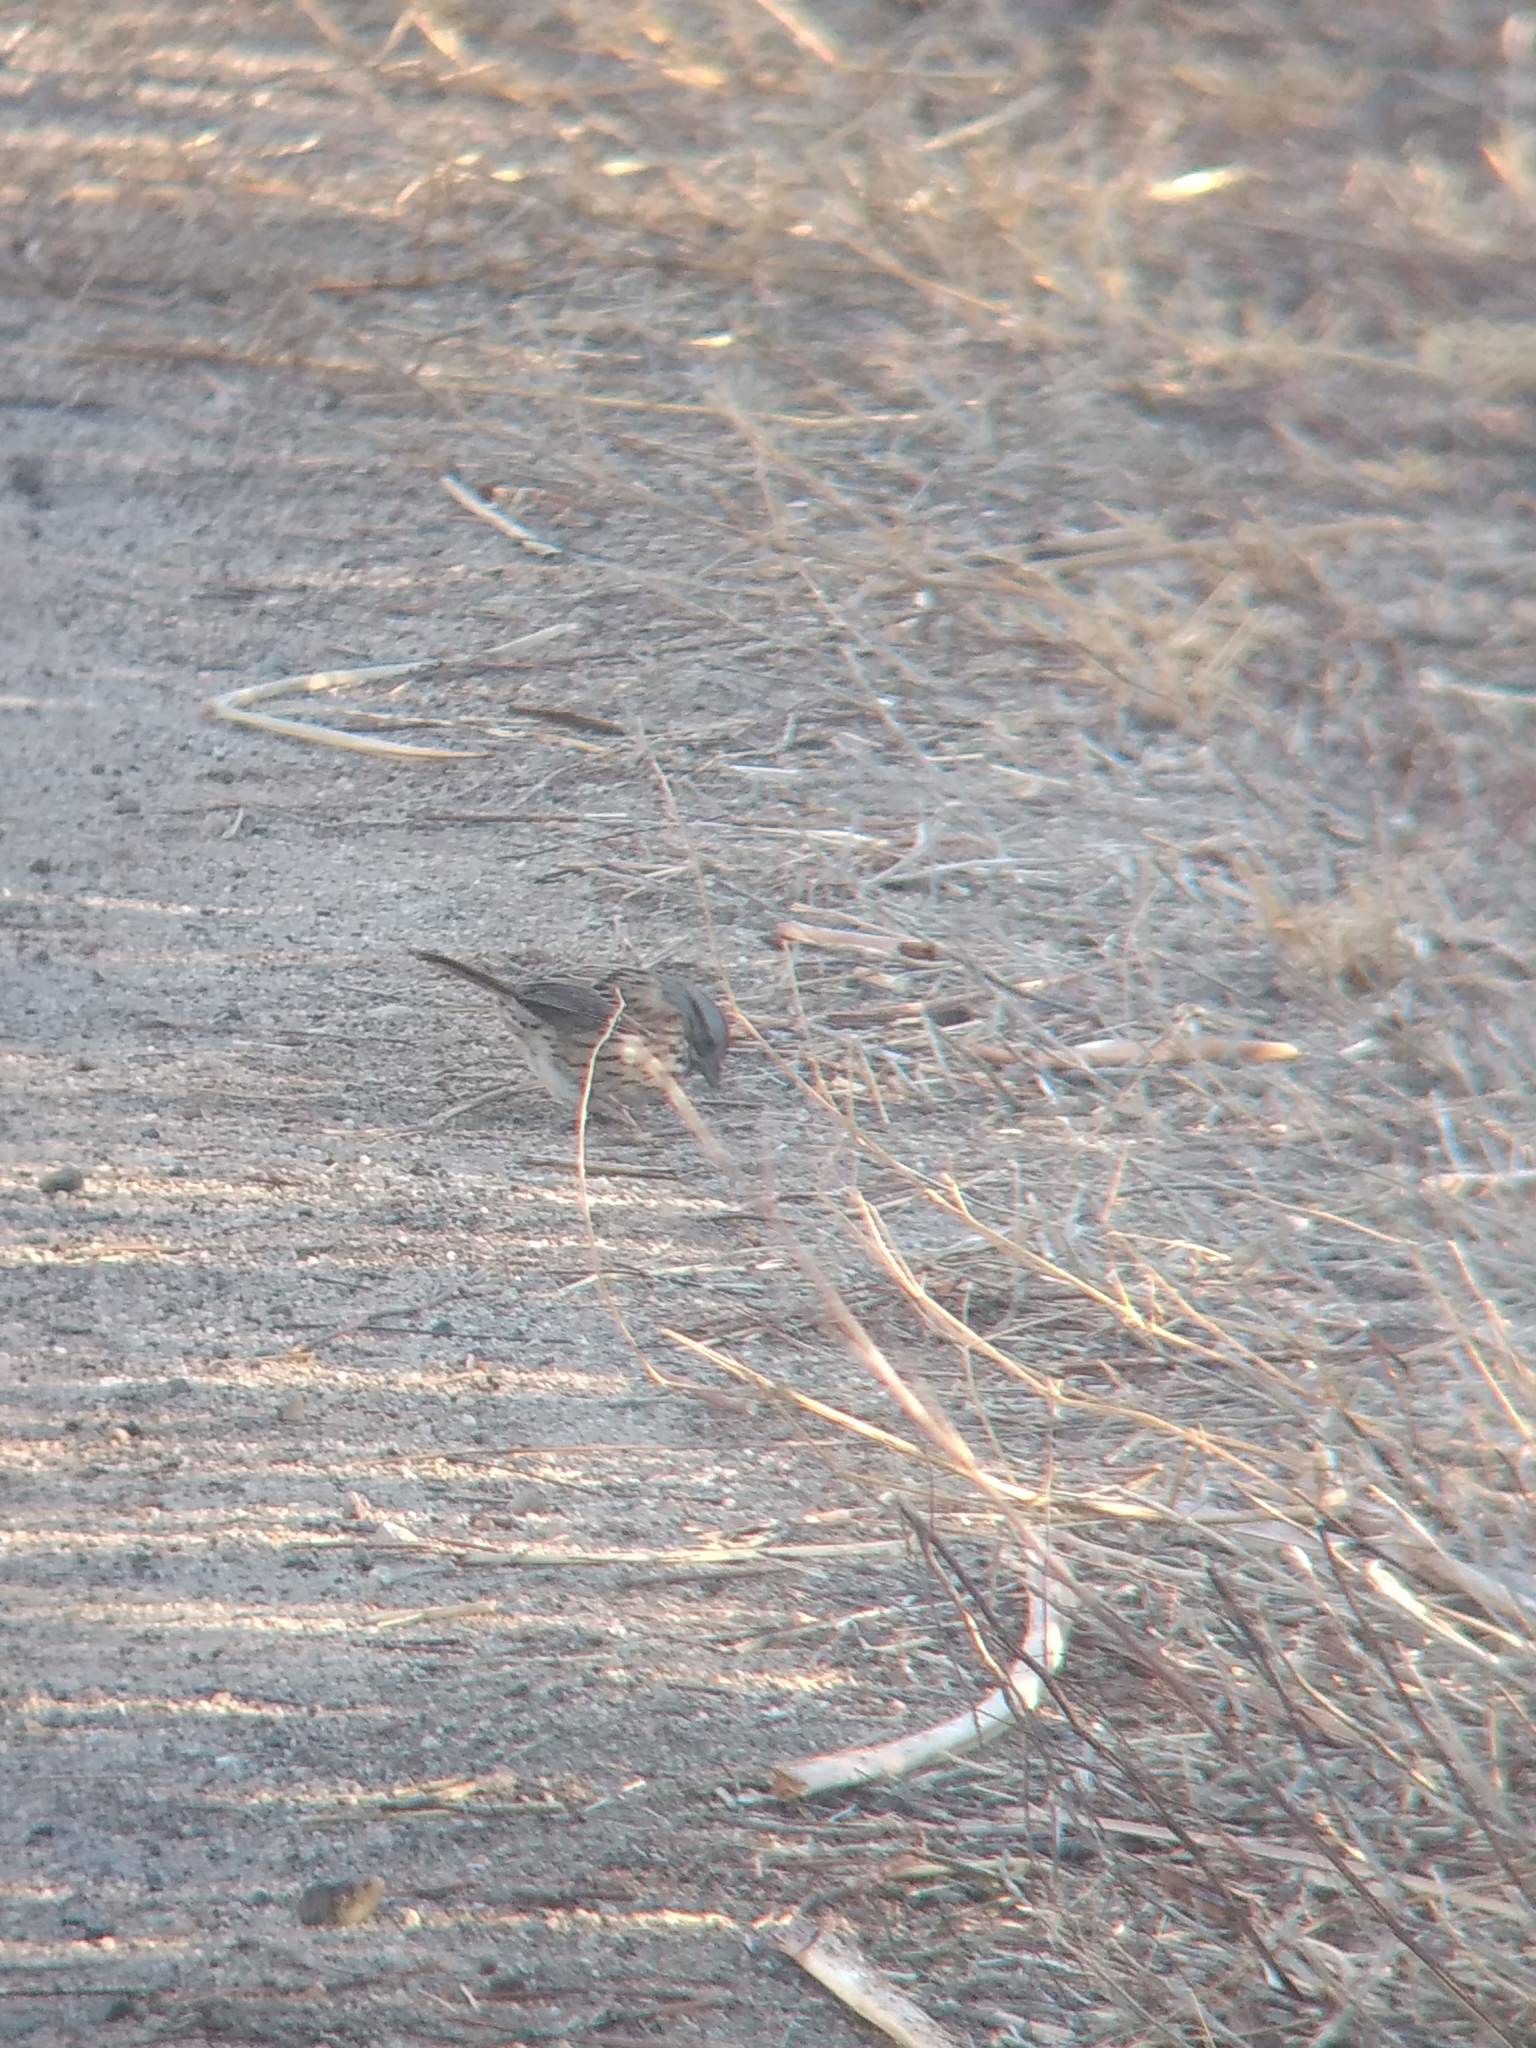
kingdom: Animalia
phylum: Chordata
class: Aves
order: Passeriformes
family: Passerellidae
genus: Melospiza
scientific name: Melospiza lincolnii
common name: Lincoln's sparrow
